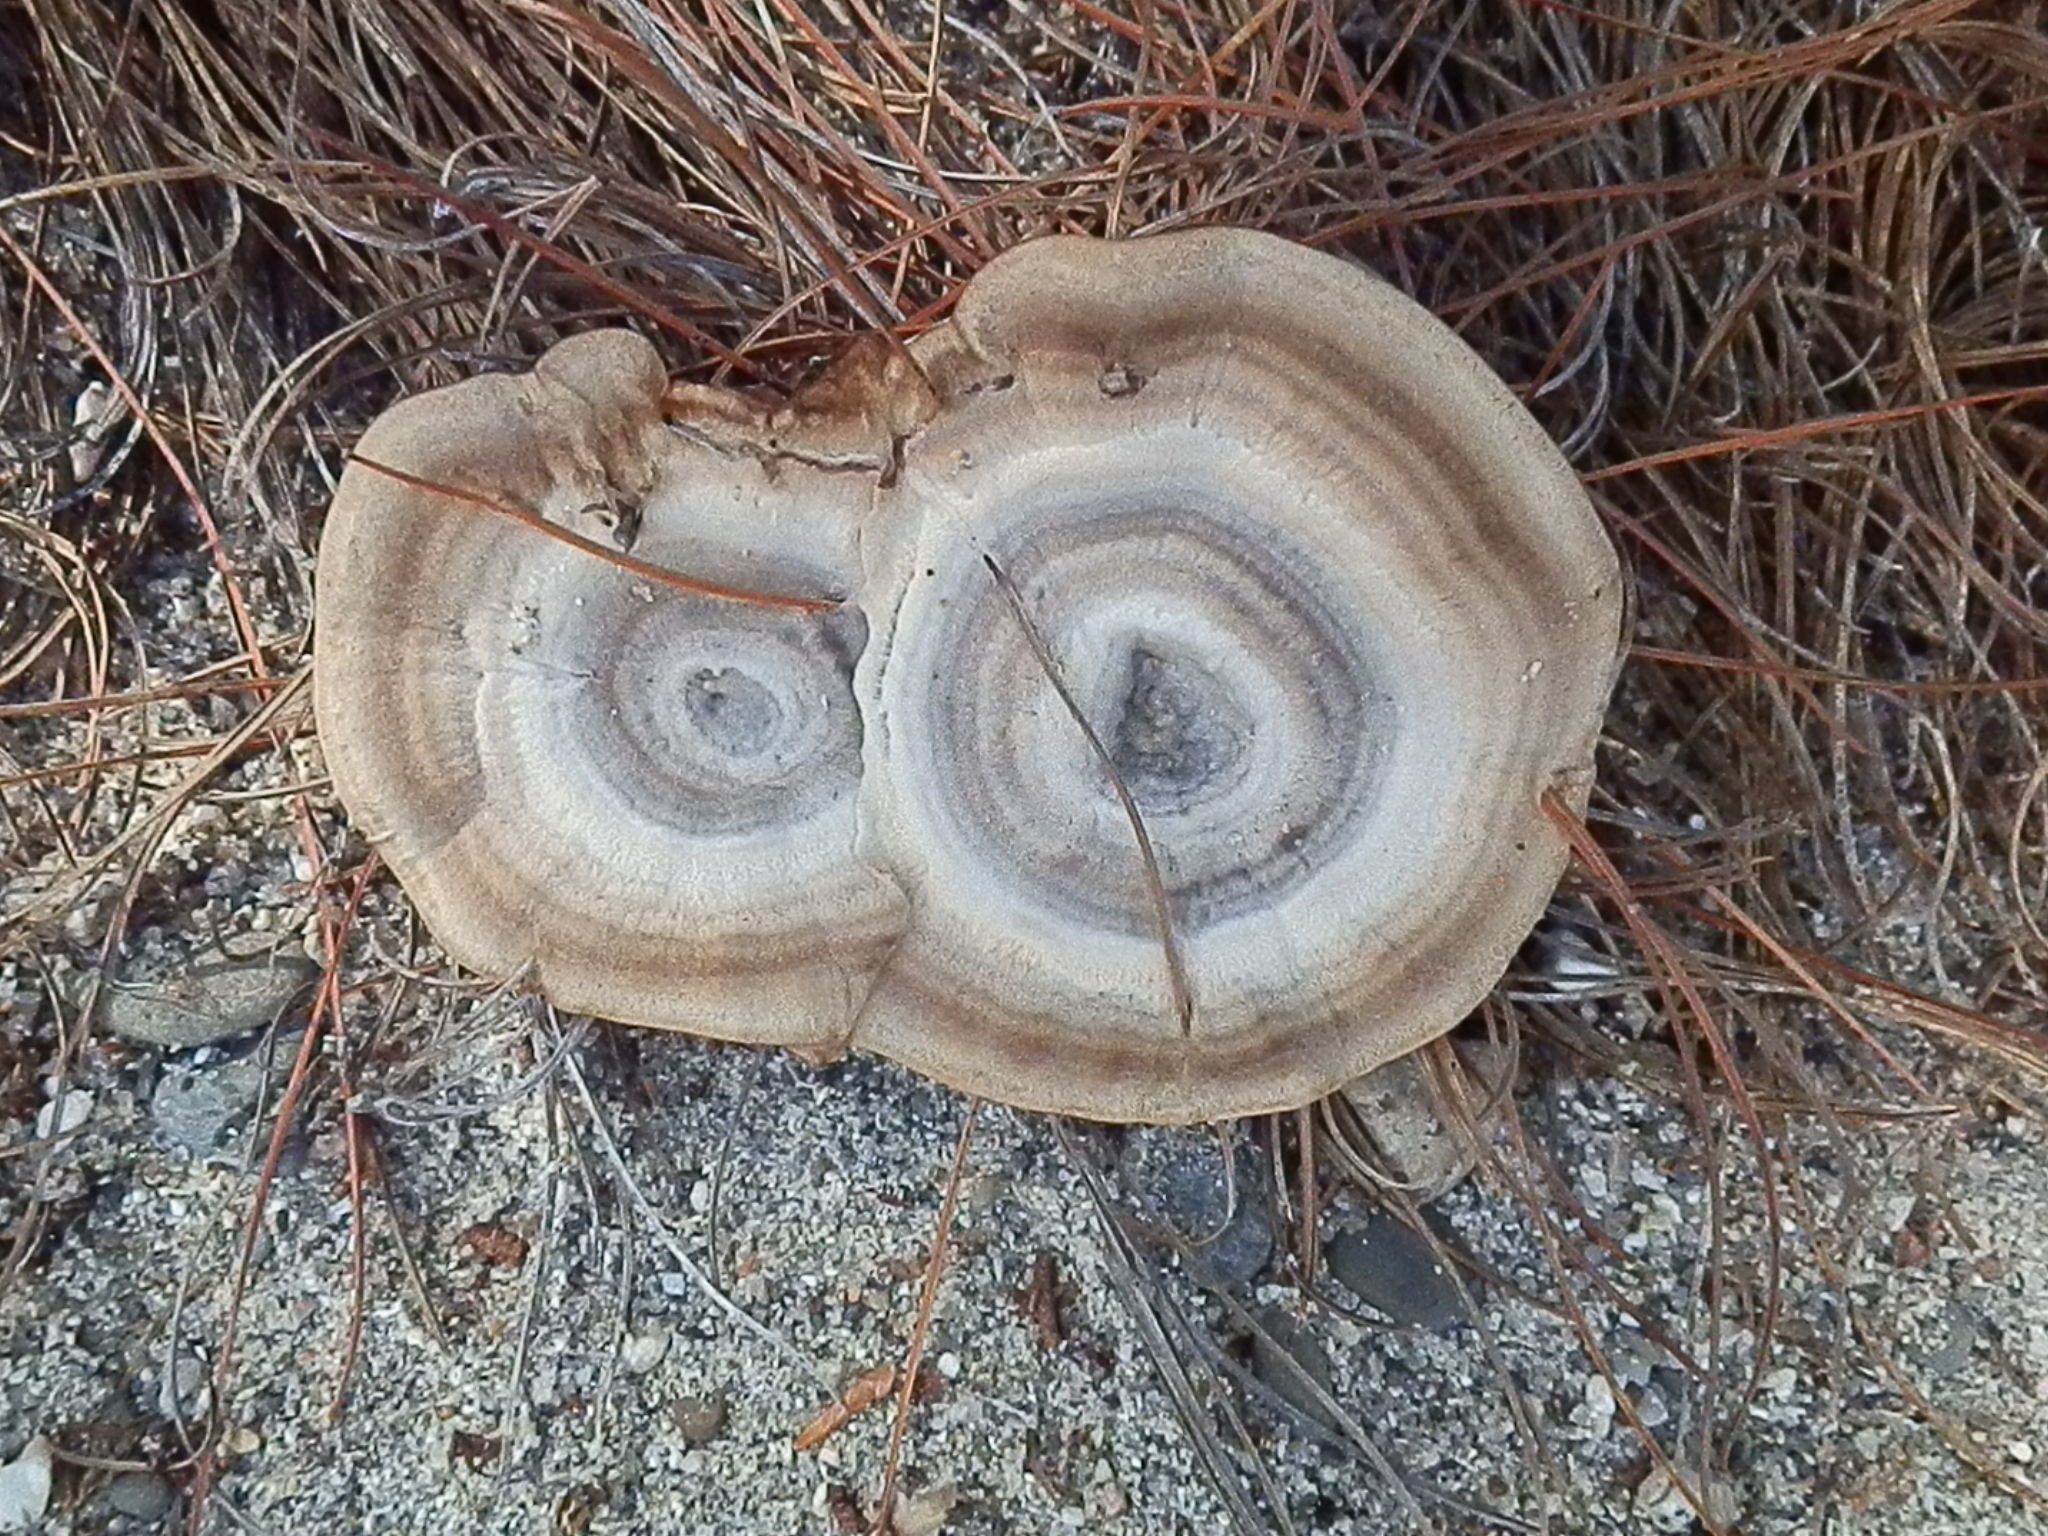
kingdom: Fungi
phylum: Basidiomycota
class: Agaricomycetes
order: Hymenochaetales
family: Hymenochaetaceae
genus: Coltricia
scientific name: Coltricia perennis
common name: Tiger's eye
